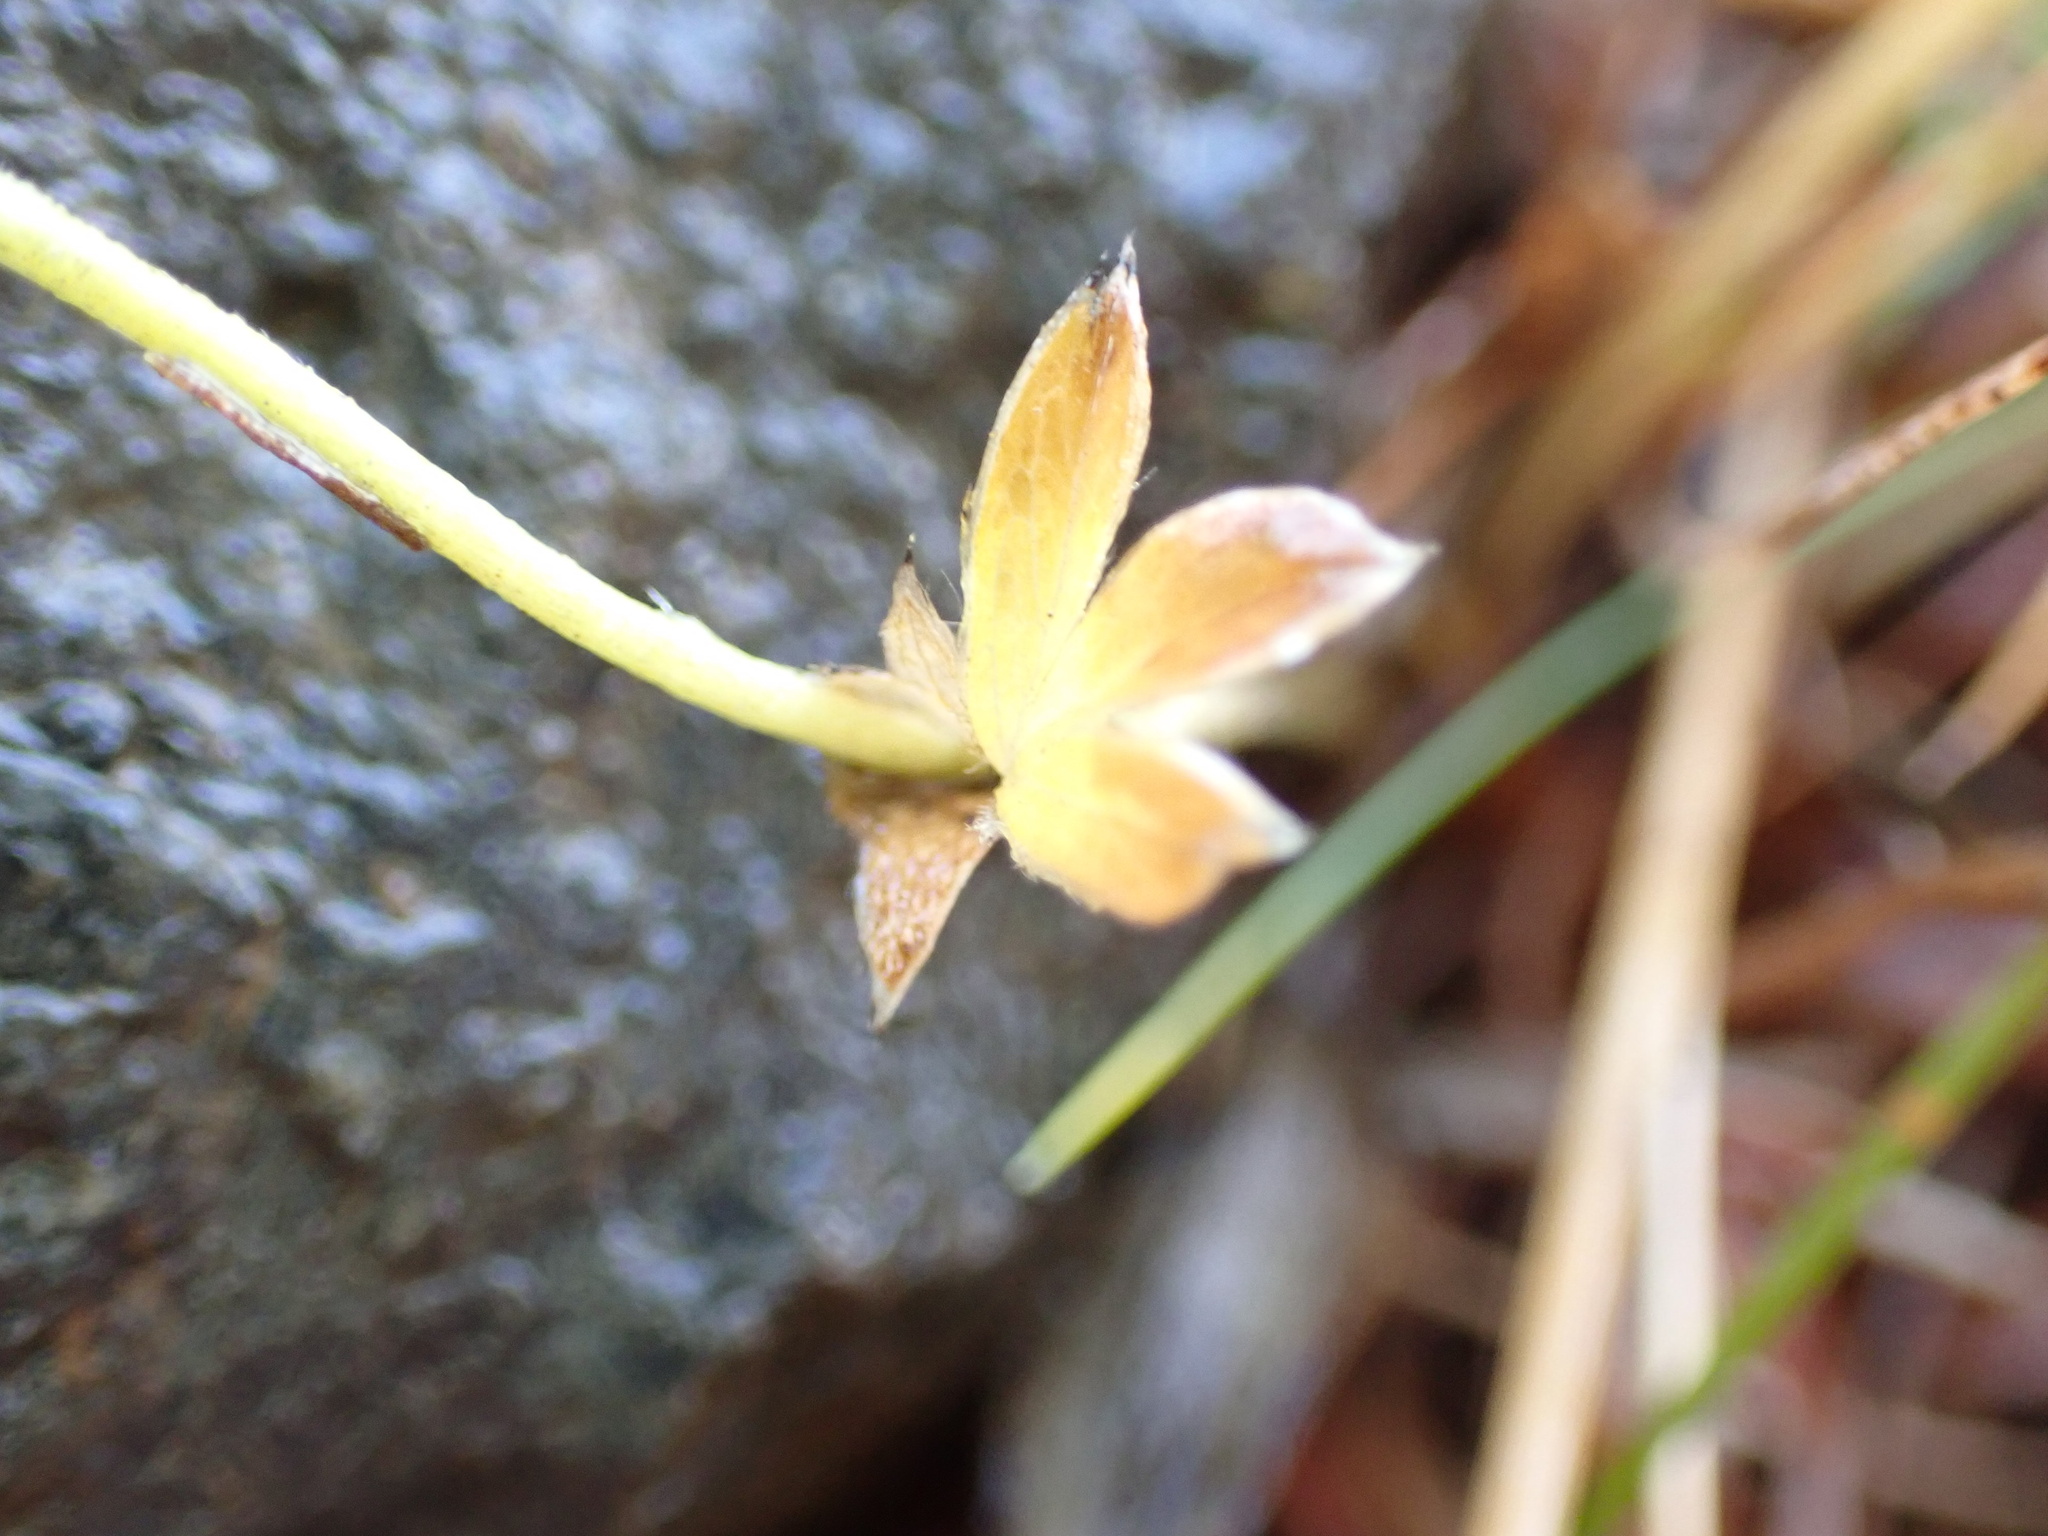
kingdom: Plantae
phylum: Tracheophyta
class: Magnoliopsida
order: Rosales
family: Rosaceae
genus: Alchemilla
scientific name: Alchemilla alpina
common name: Alpine lady's-mantle
